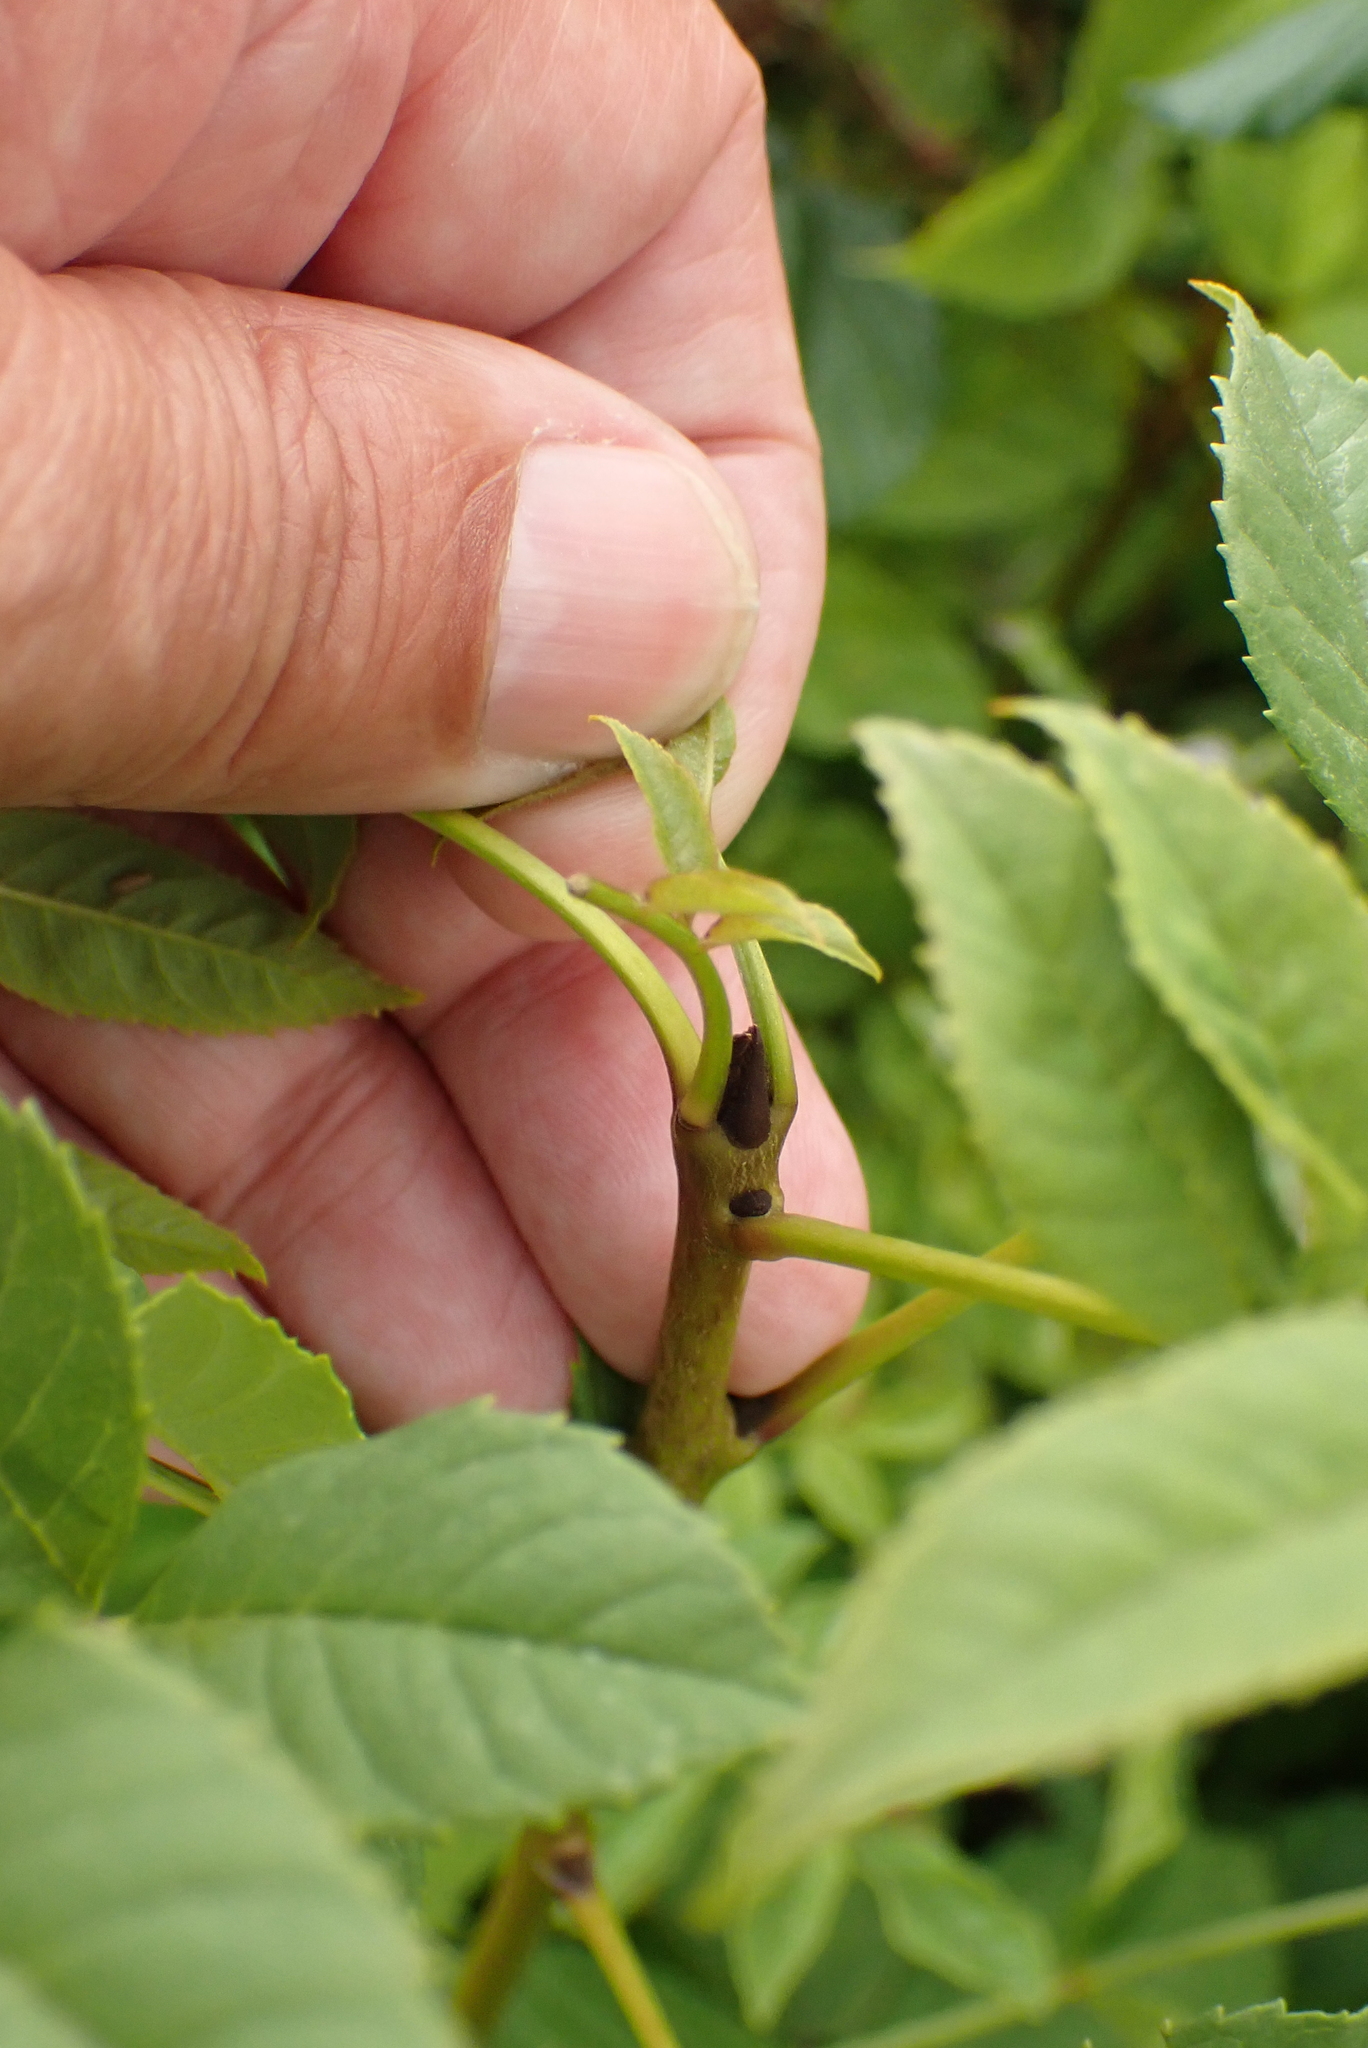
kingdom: Plantae
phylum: Tracheophyta
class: Magnoliopsida
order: Lamiales
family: Oleaceae
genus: Fraxinus
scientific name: Fraxinus excelsior
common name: European ash
